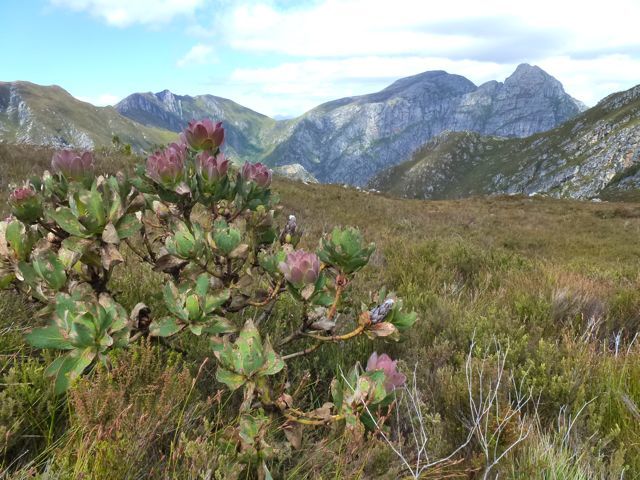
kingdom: Plantae
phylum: Tracheophyta
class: Magnoliopsida
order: Proteales
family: Proteaceae
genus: Protea
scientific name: Protea grandiceps
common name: Red sugarbush
